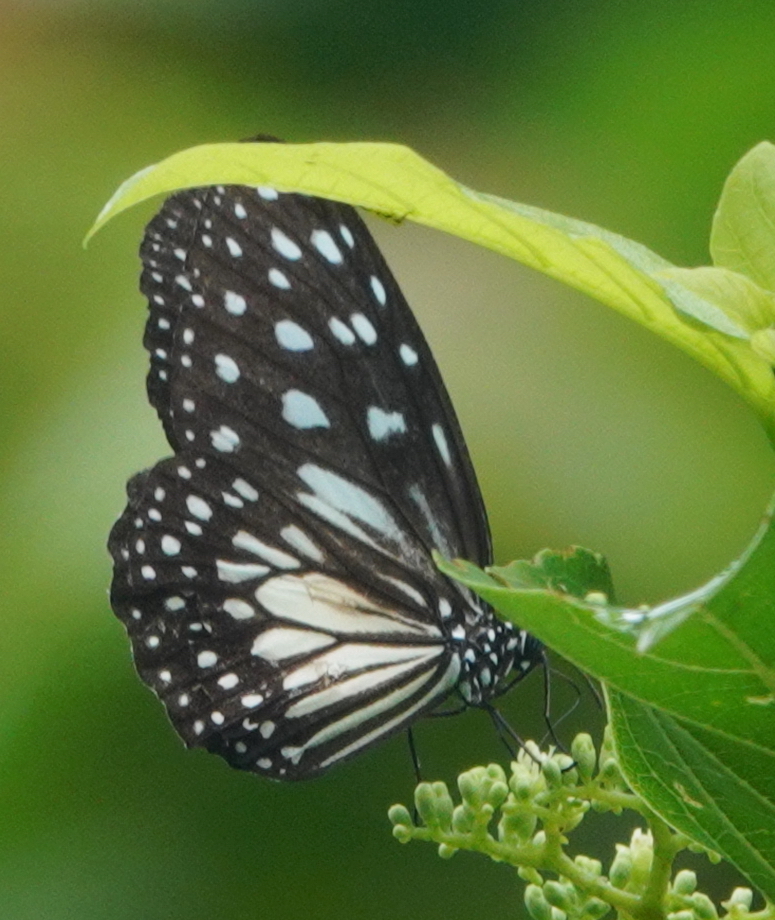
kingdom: Animalia
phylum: Arthropoda
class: Insecta
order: Lepidoptera
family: Nymphalidae
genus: Ideopsis
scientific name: Ideopsis juventa
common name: Grey glassy tiger
